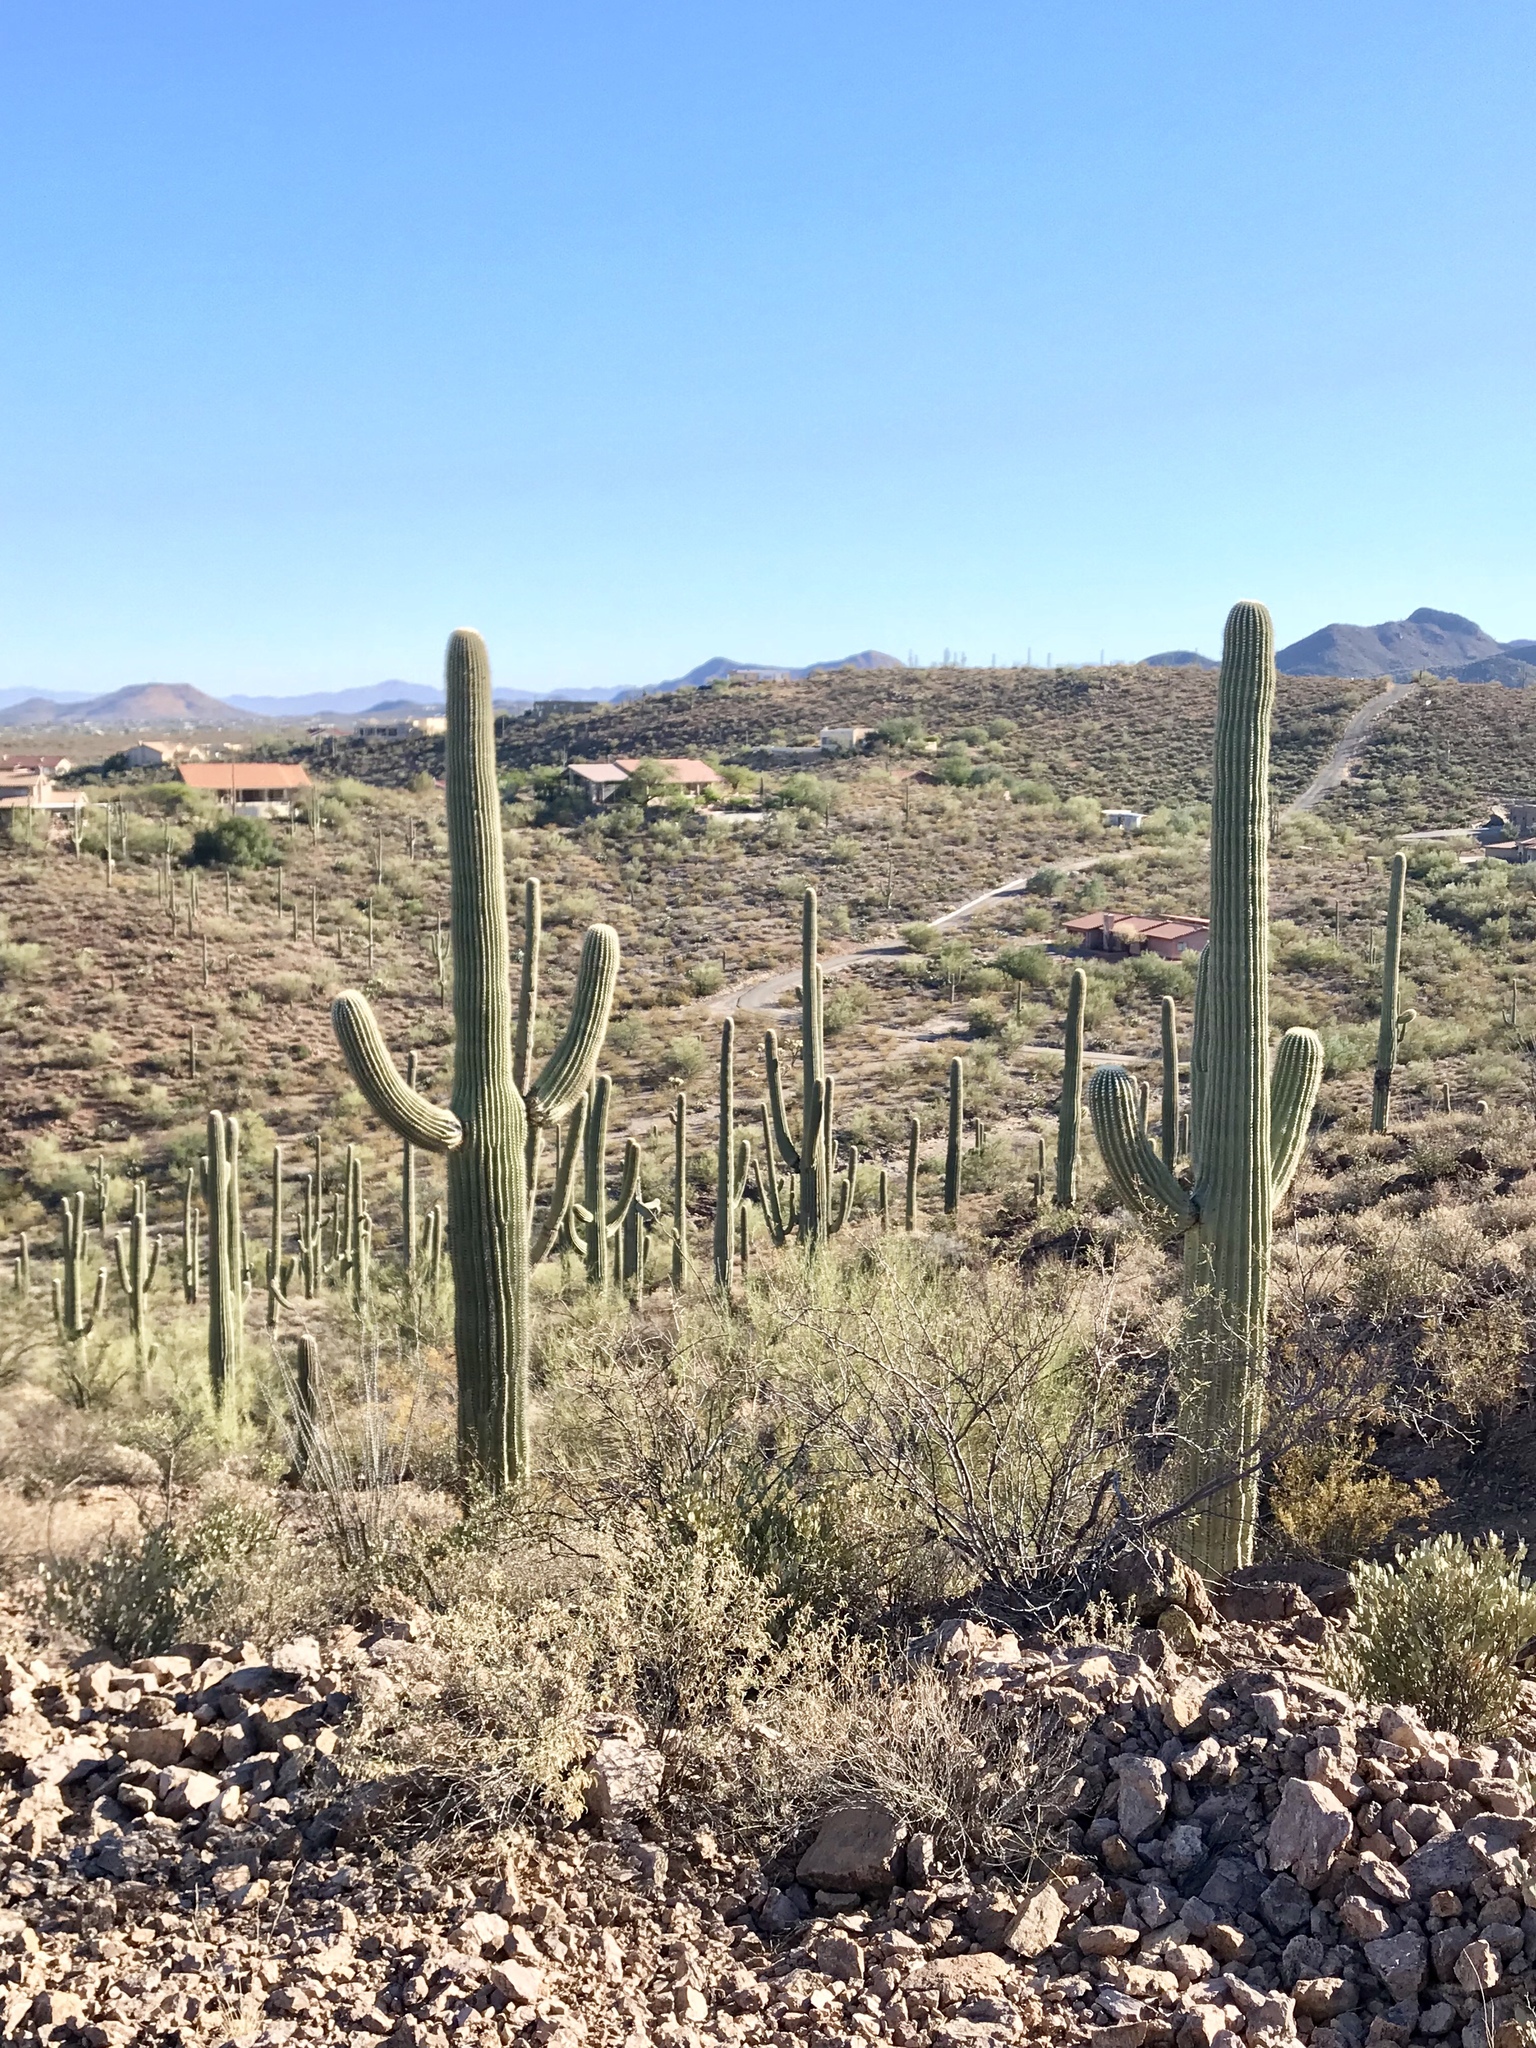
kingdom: Plantae
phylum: Tracheophyta
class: Magnoliopsida
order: Caryophyllales
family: Cactaceae
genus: Carnegiea
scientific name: Carnegiea gigantea
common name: Saguaro
